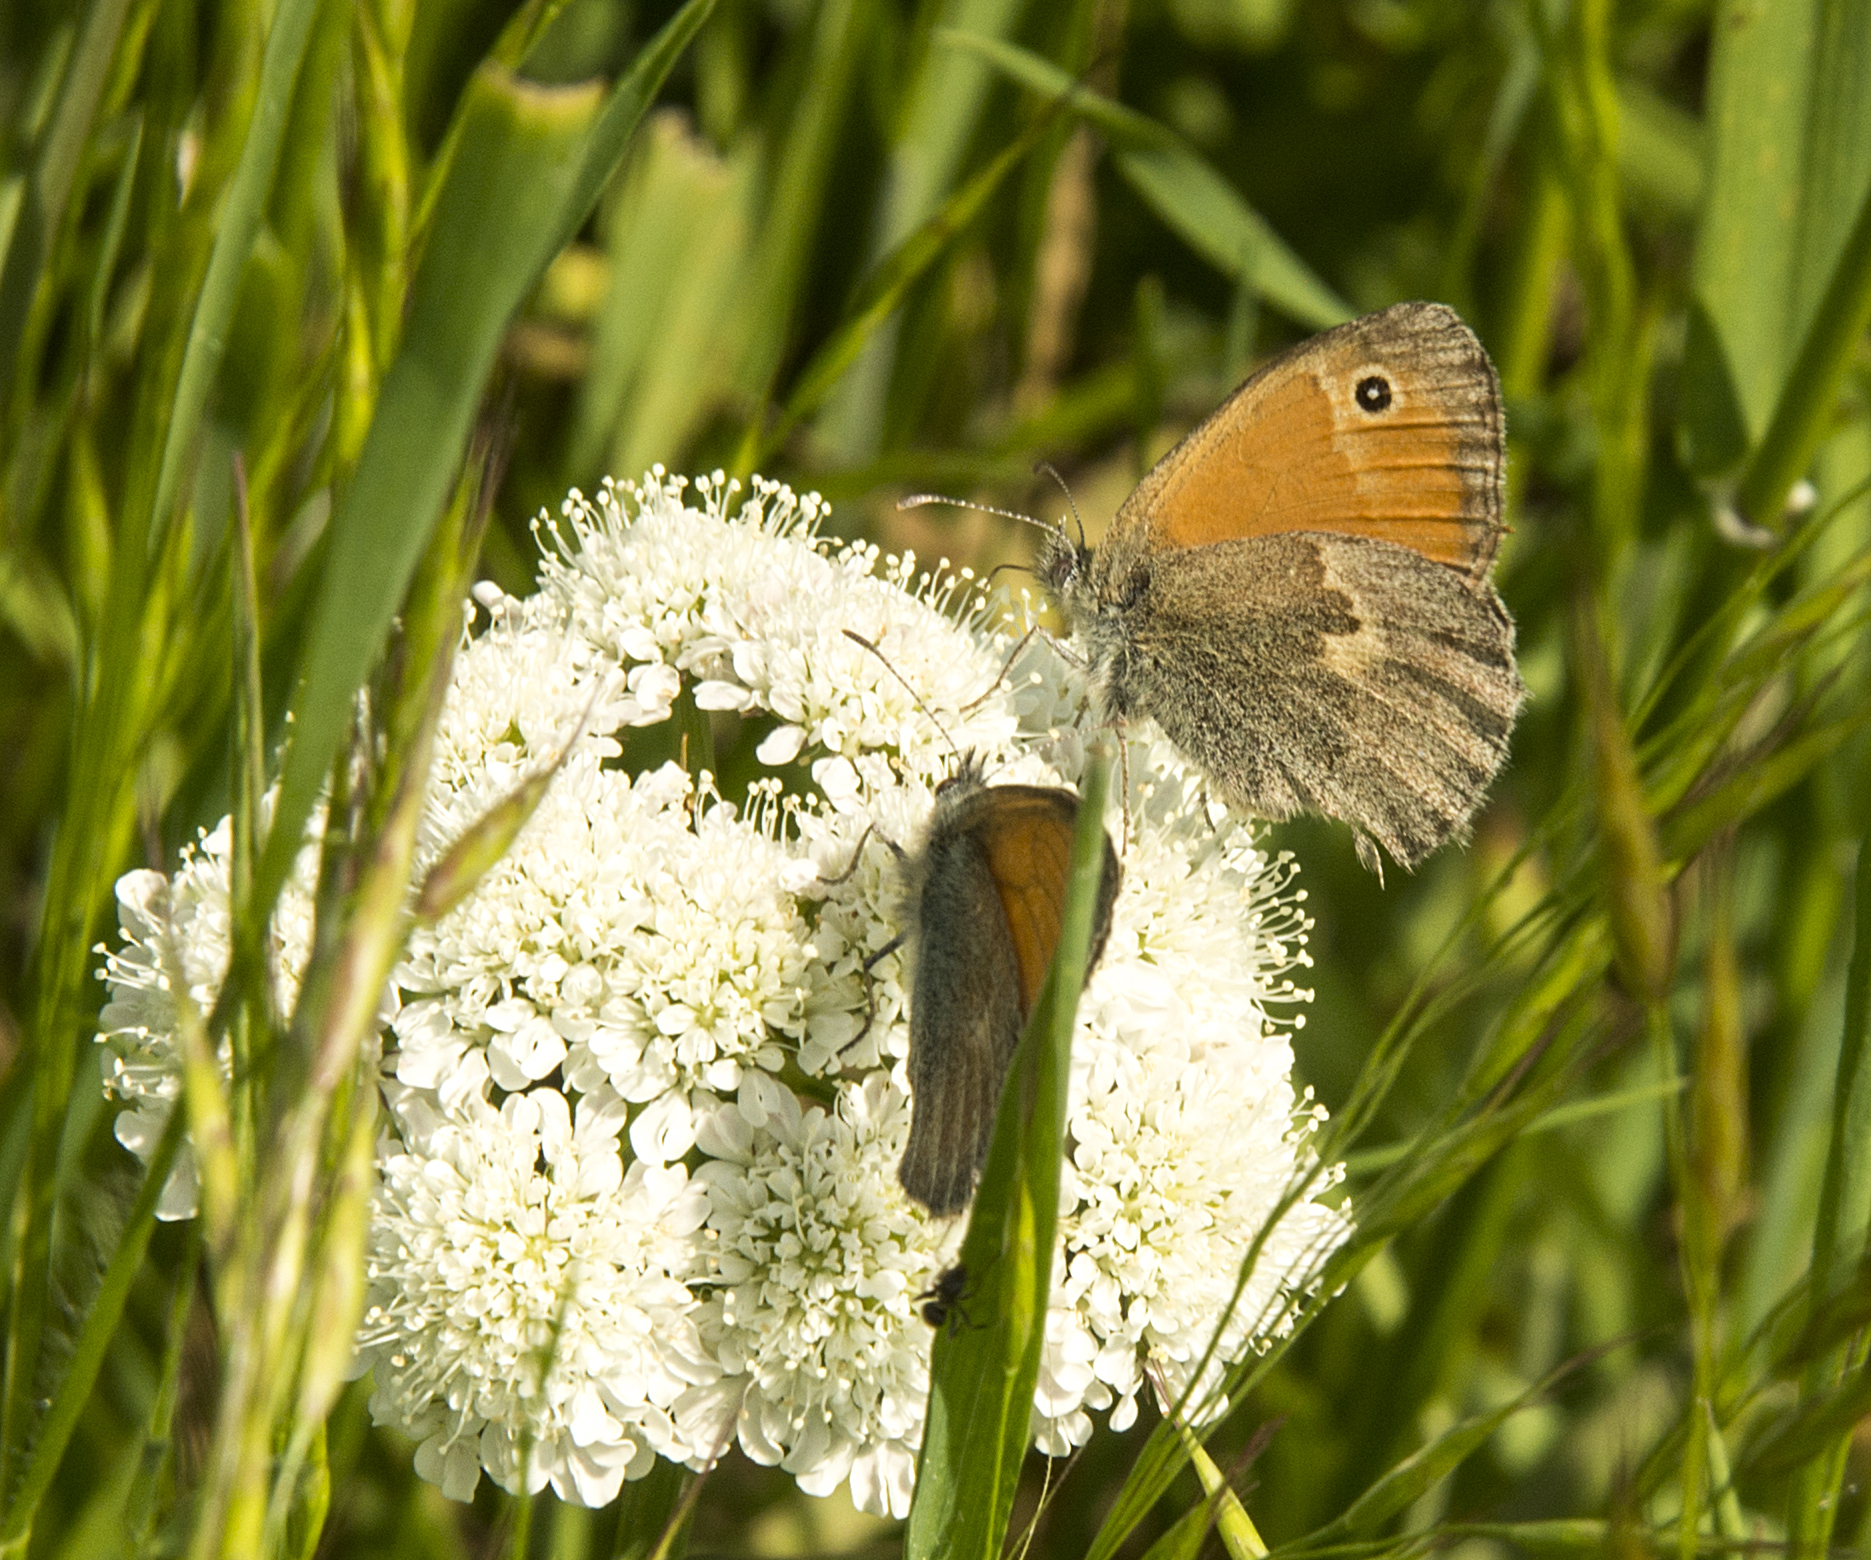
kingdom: Animalia
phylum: Arthropoda
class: Insecta
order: Lepidoptera
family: Nymphalidae
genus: Coenonympha
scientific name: Coenonympha pamphilus
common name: Small heath
